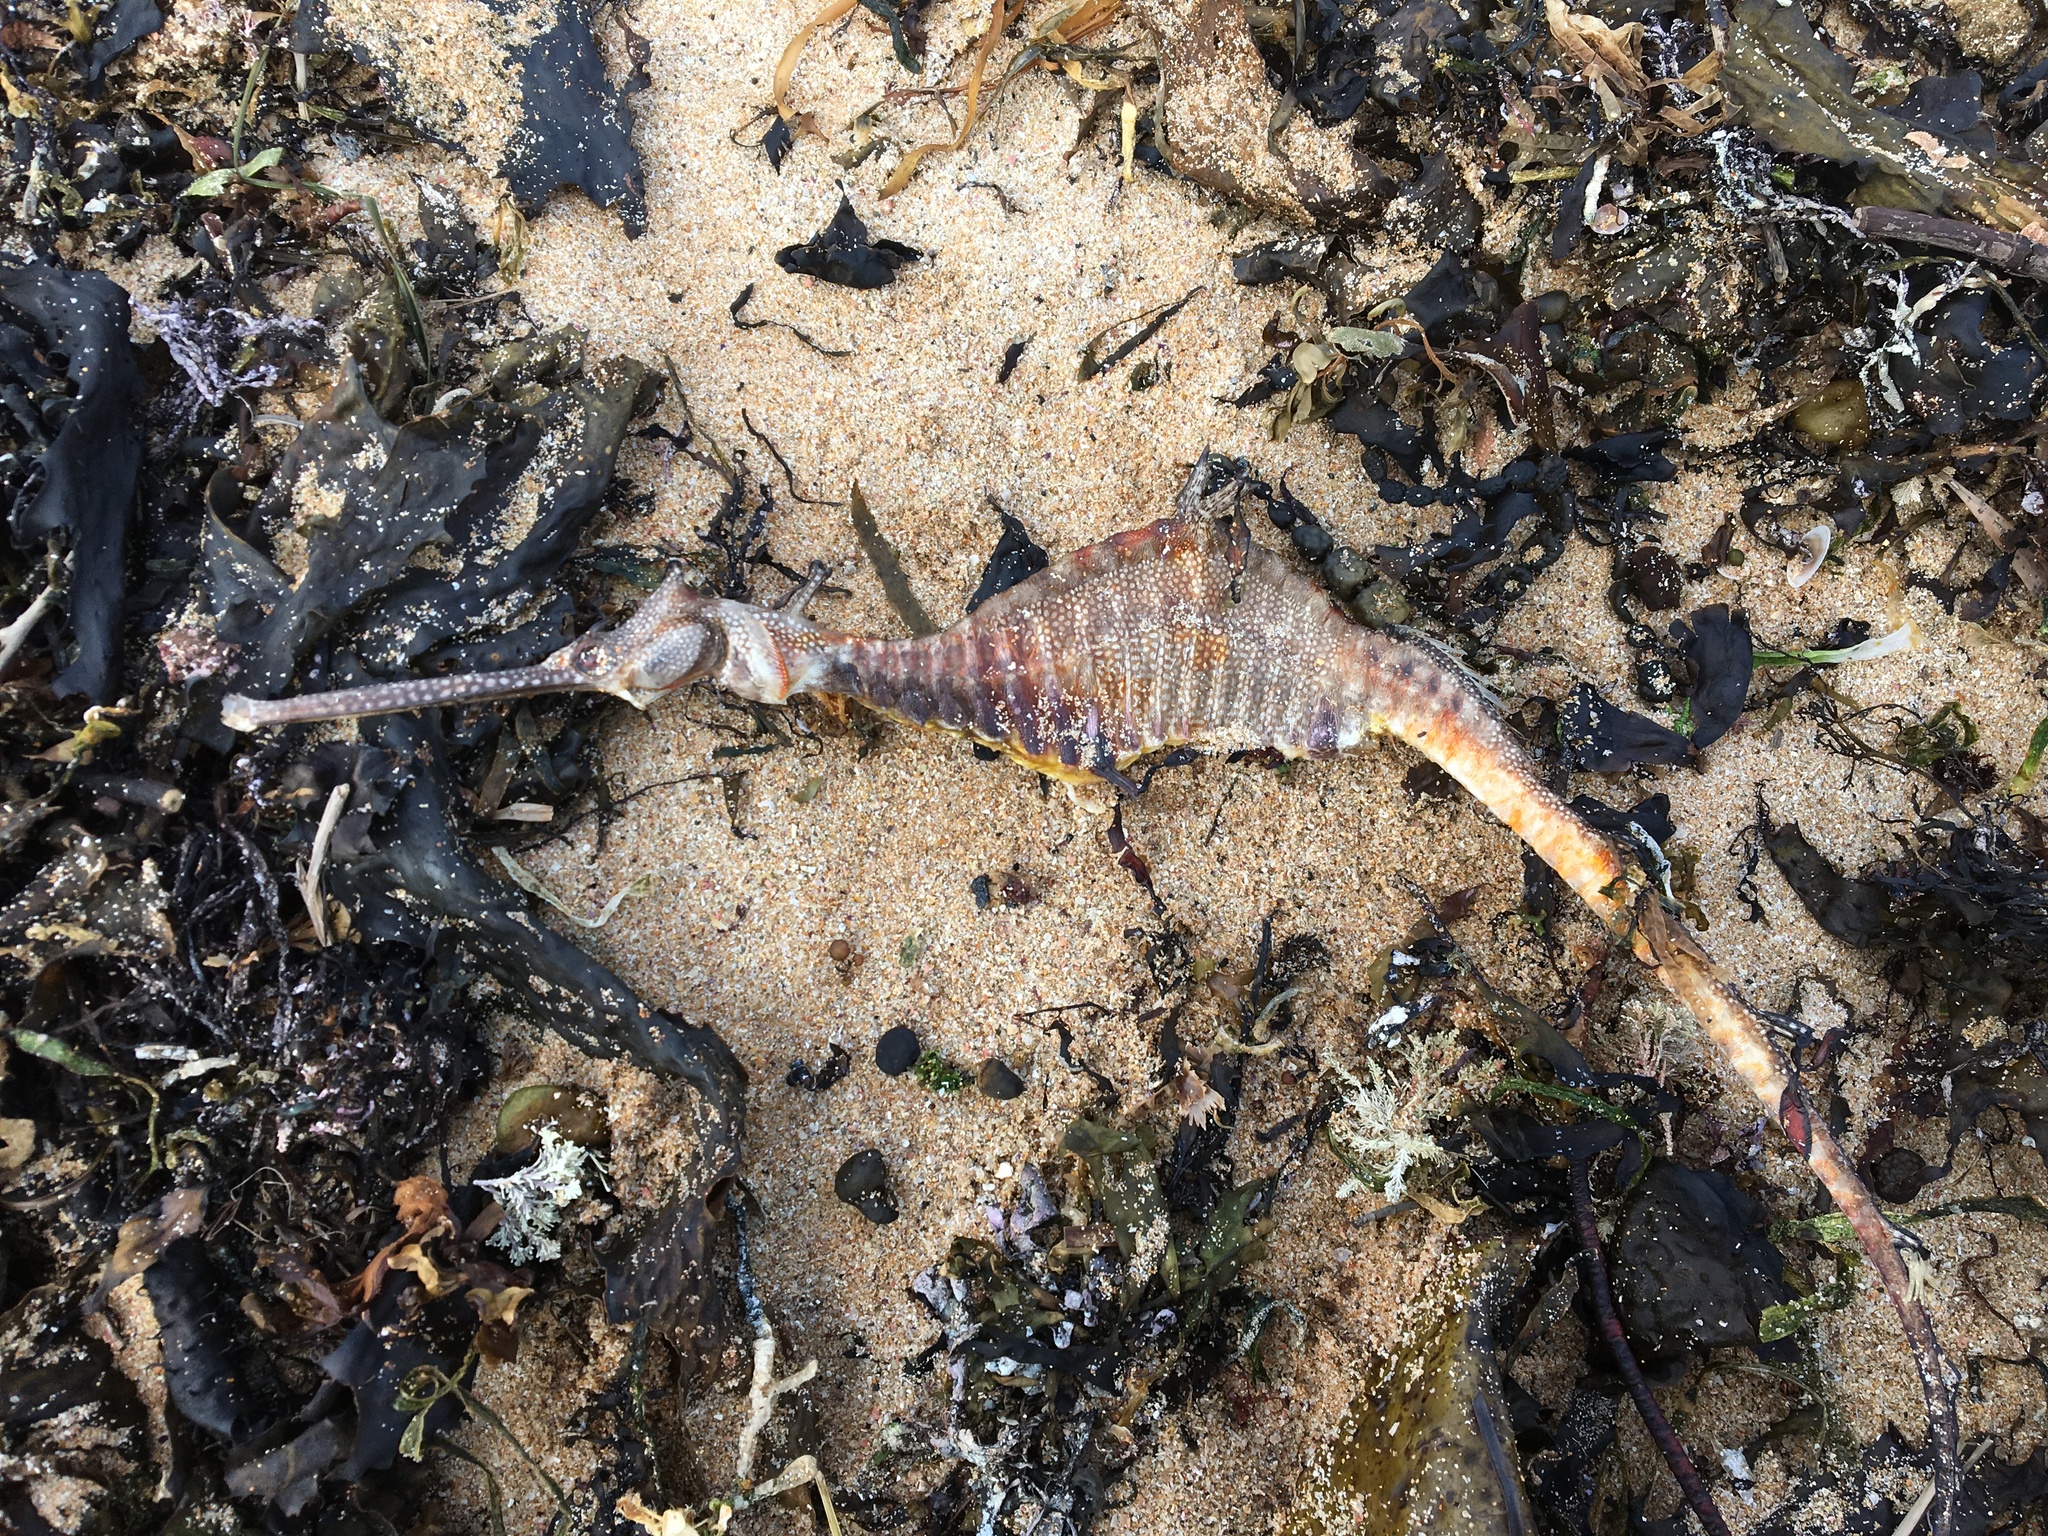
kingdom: Animalia
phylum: Chordata
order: Syngnathiformes
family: Syngnathidae
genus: Phyllopteryx
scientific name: Phyllopteryx taeniolatus
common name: Common seadragon
